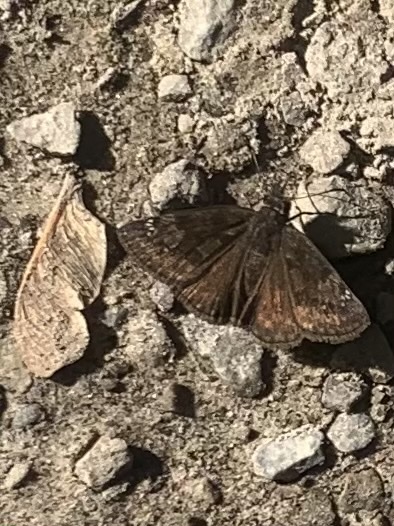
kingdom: Animalia
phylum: Arthropoda
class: Insecta
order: Lepidoptera
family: Hesperiidae
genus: Erynnis
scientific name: Erynnis baptisiae
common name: Wild indigo duskywing
